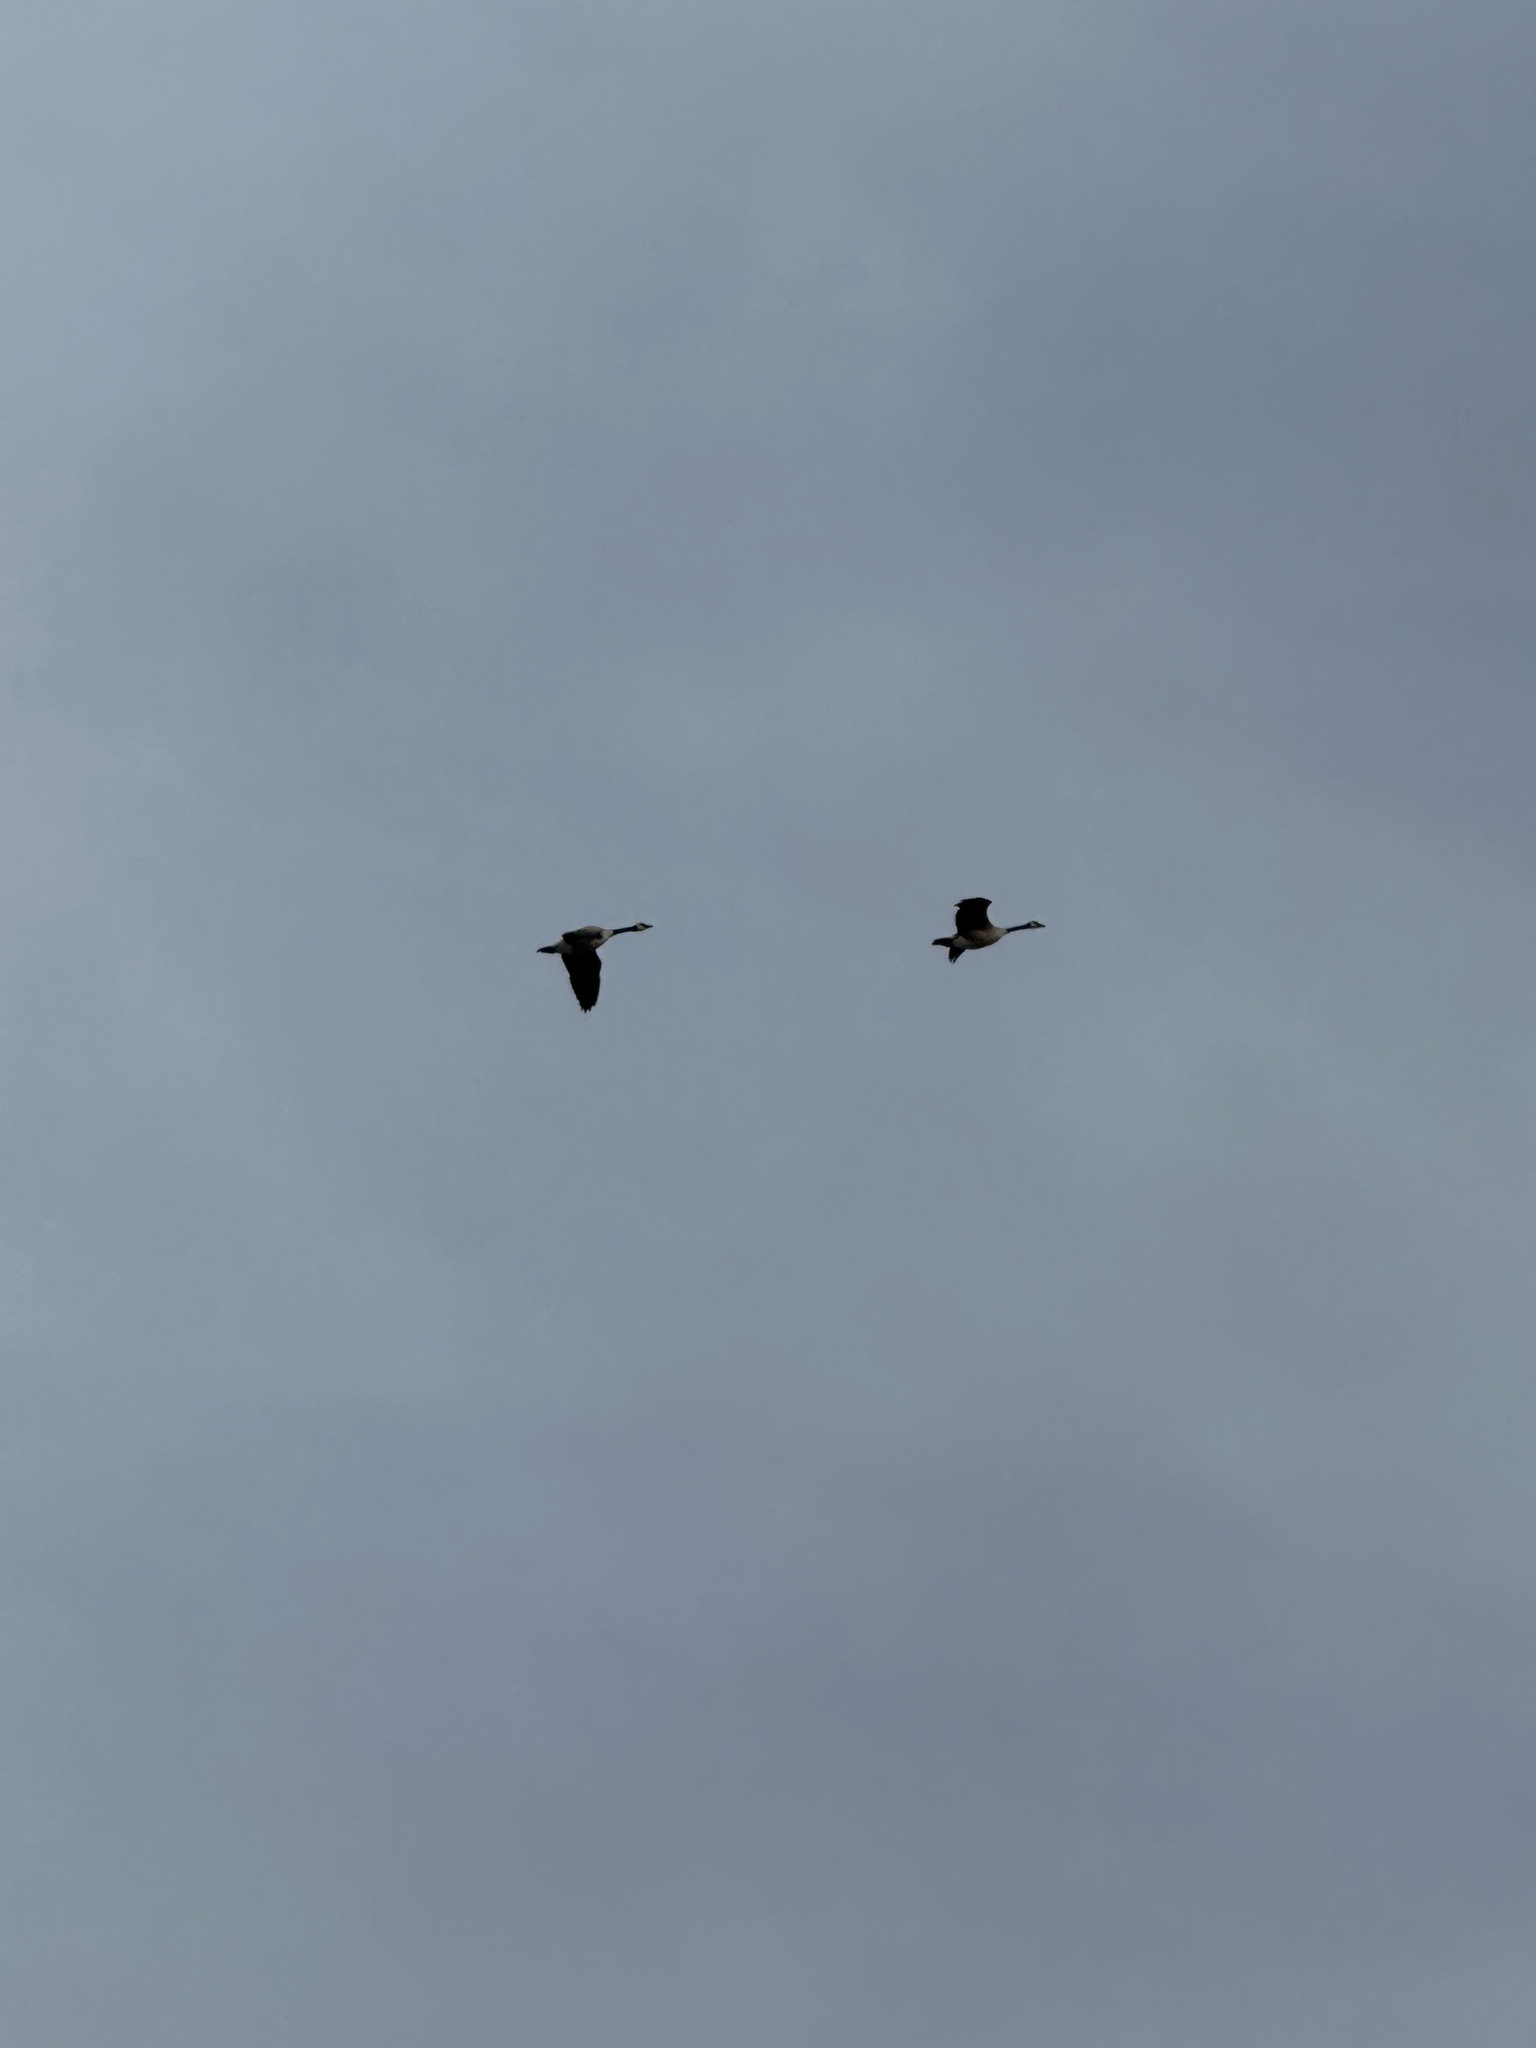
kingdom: Animalia
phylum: Chordata
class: Aves
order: Anseriformes
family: Anatidae
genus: Branta
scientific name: Branta canadensis
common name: Canada goose
